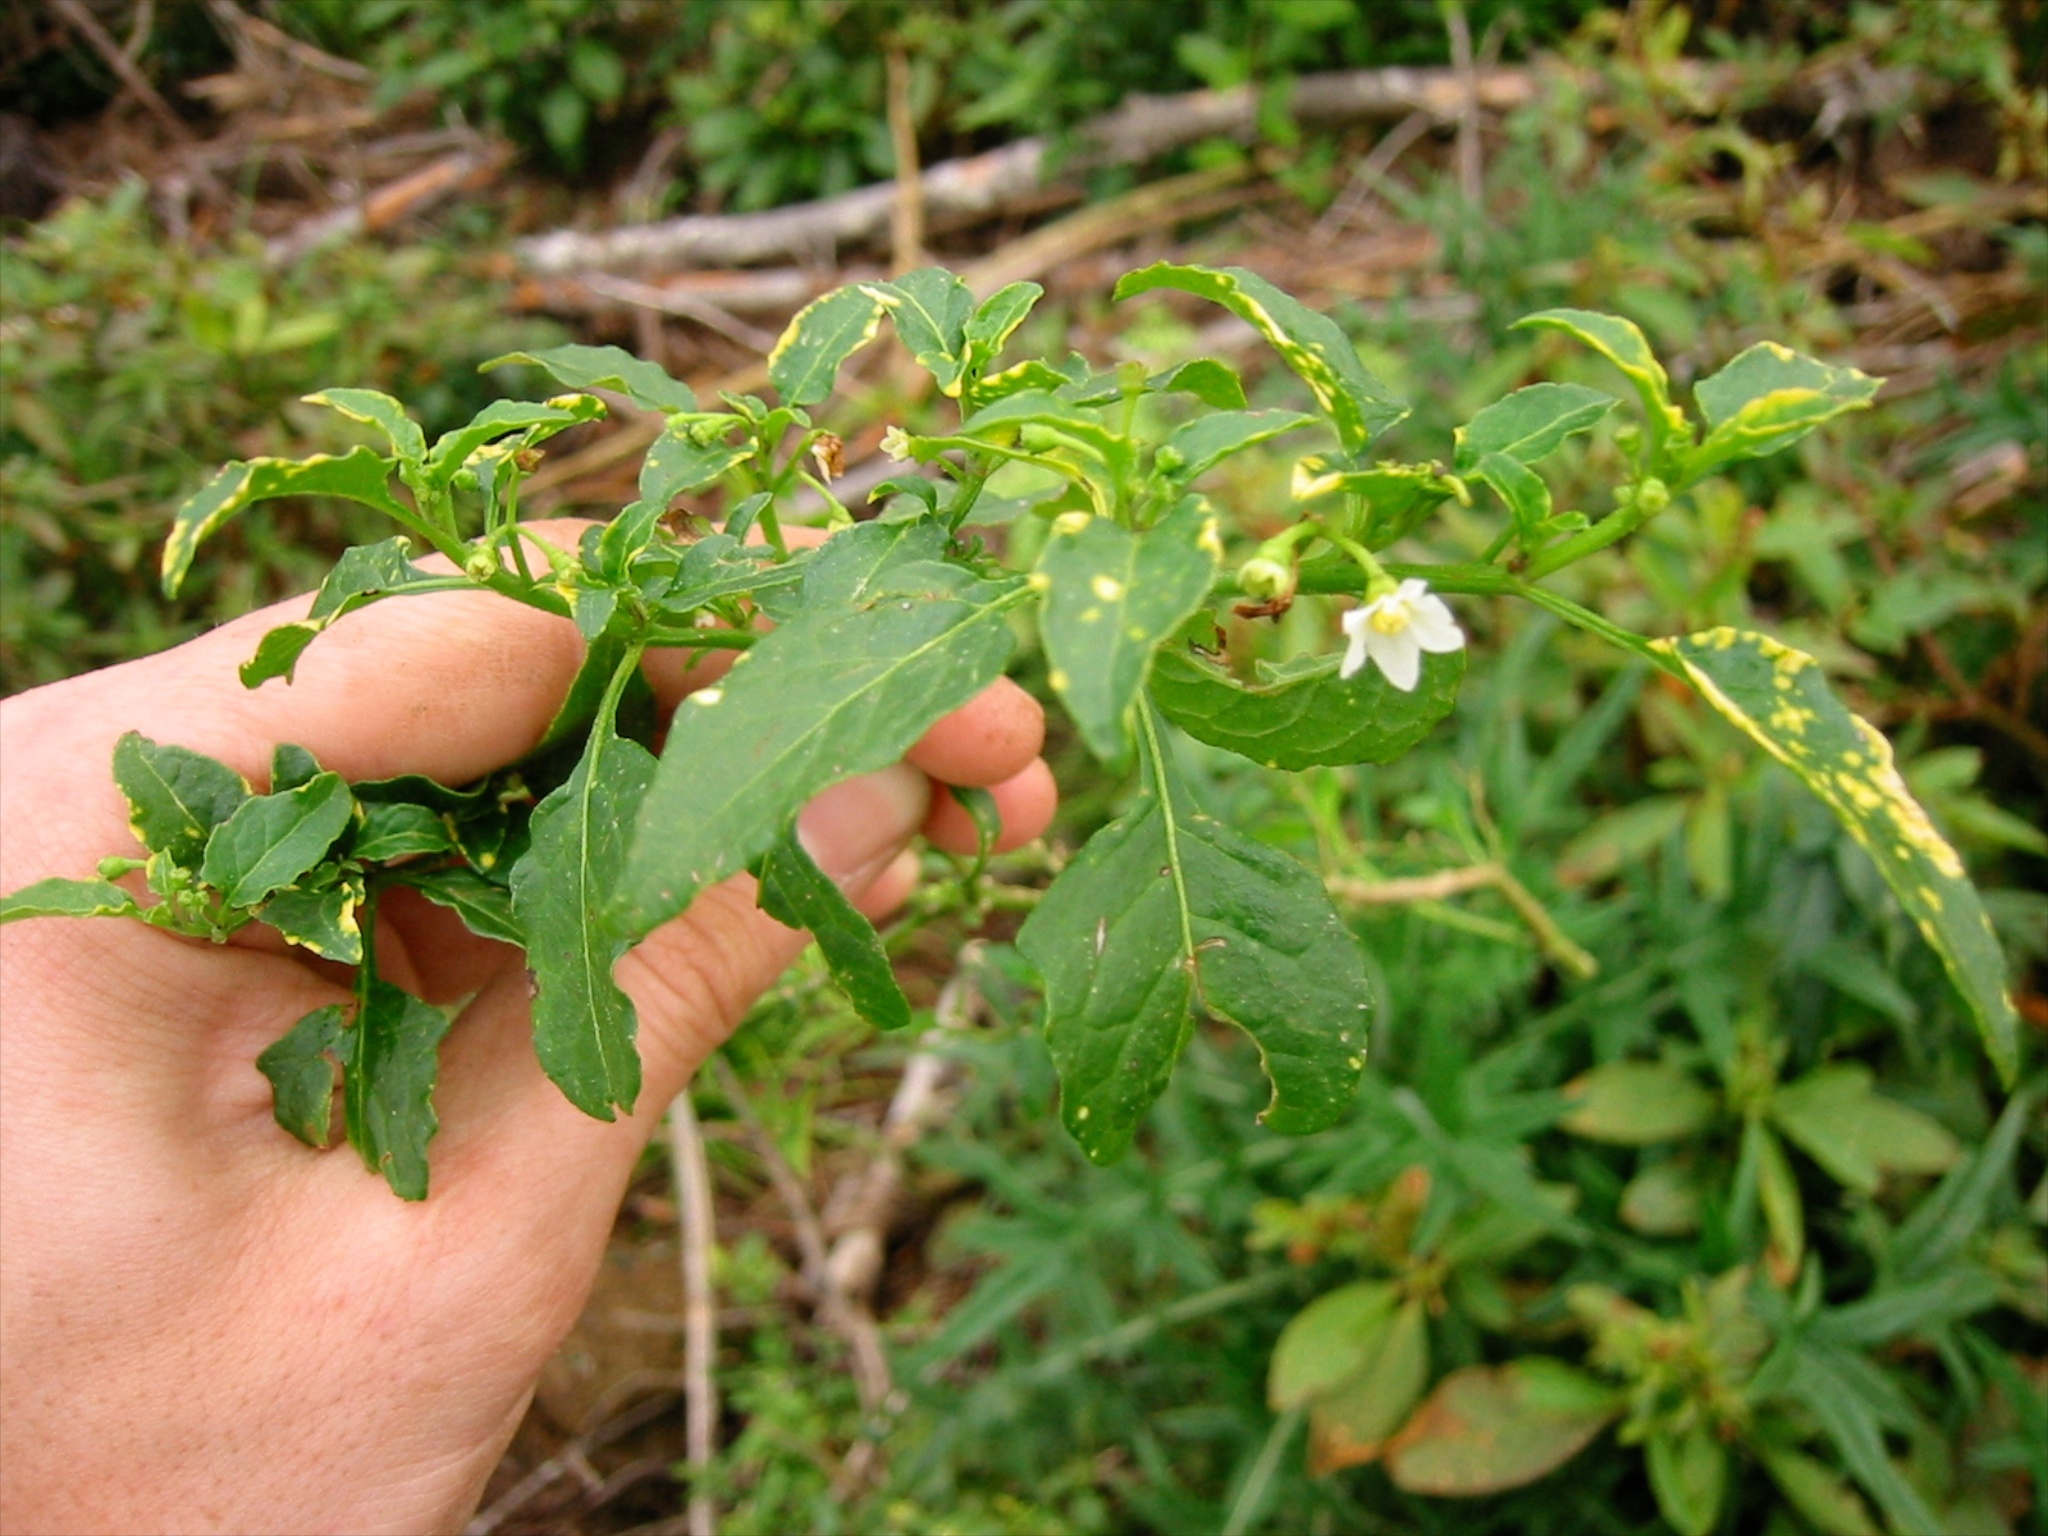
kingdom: Plantae
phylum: Tracheophyta
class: Magnoliopsida
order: Solanales
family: Solanaceae
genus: Solanum
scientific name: Solanum pseudocapsicum
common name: Jerusalem cherry
